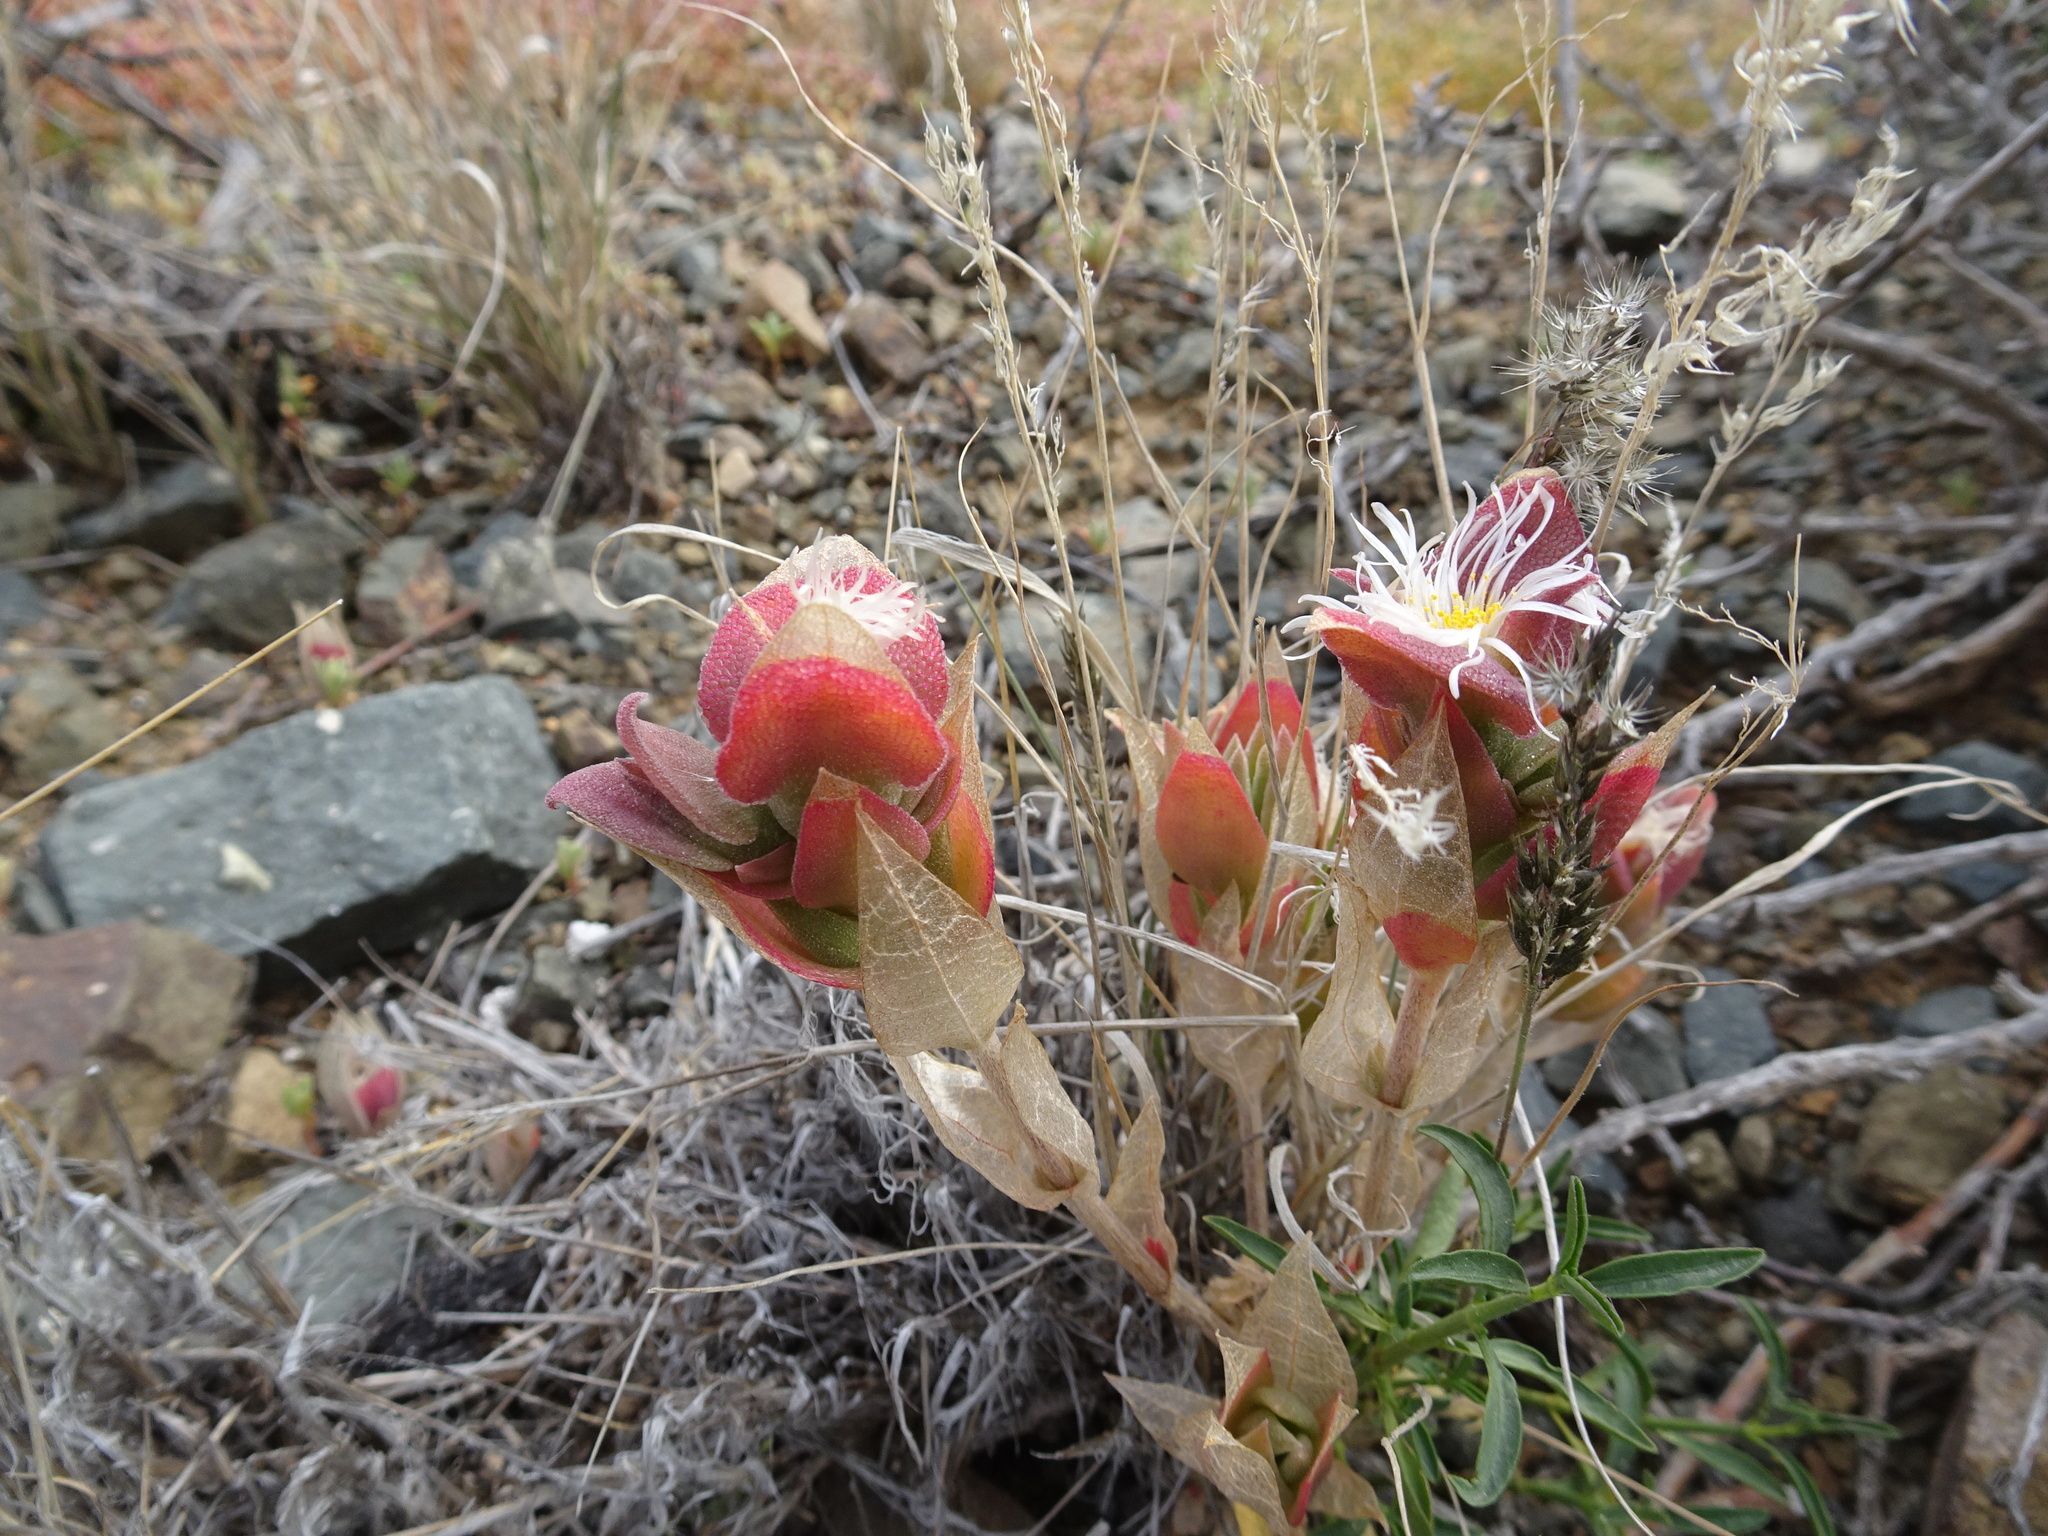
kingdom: Plantae
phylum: Tracheophyta
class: Magnoliopsida
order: Caryophyllales
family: Aizoaceae
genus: Mesembryanthemum
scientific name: Mesembryanthemum expansum
